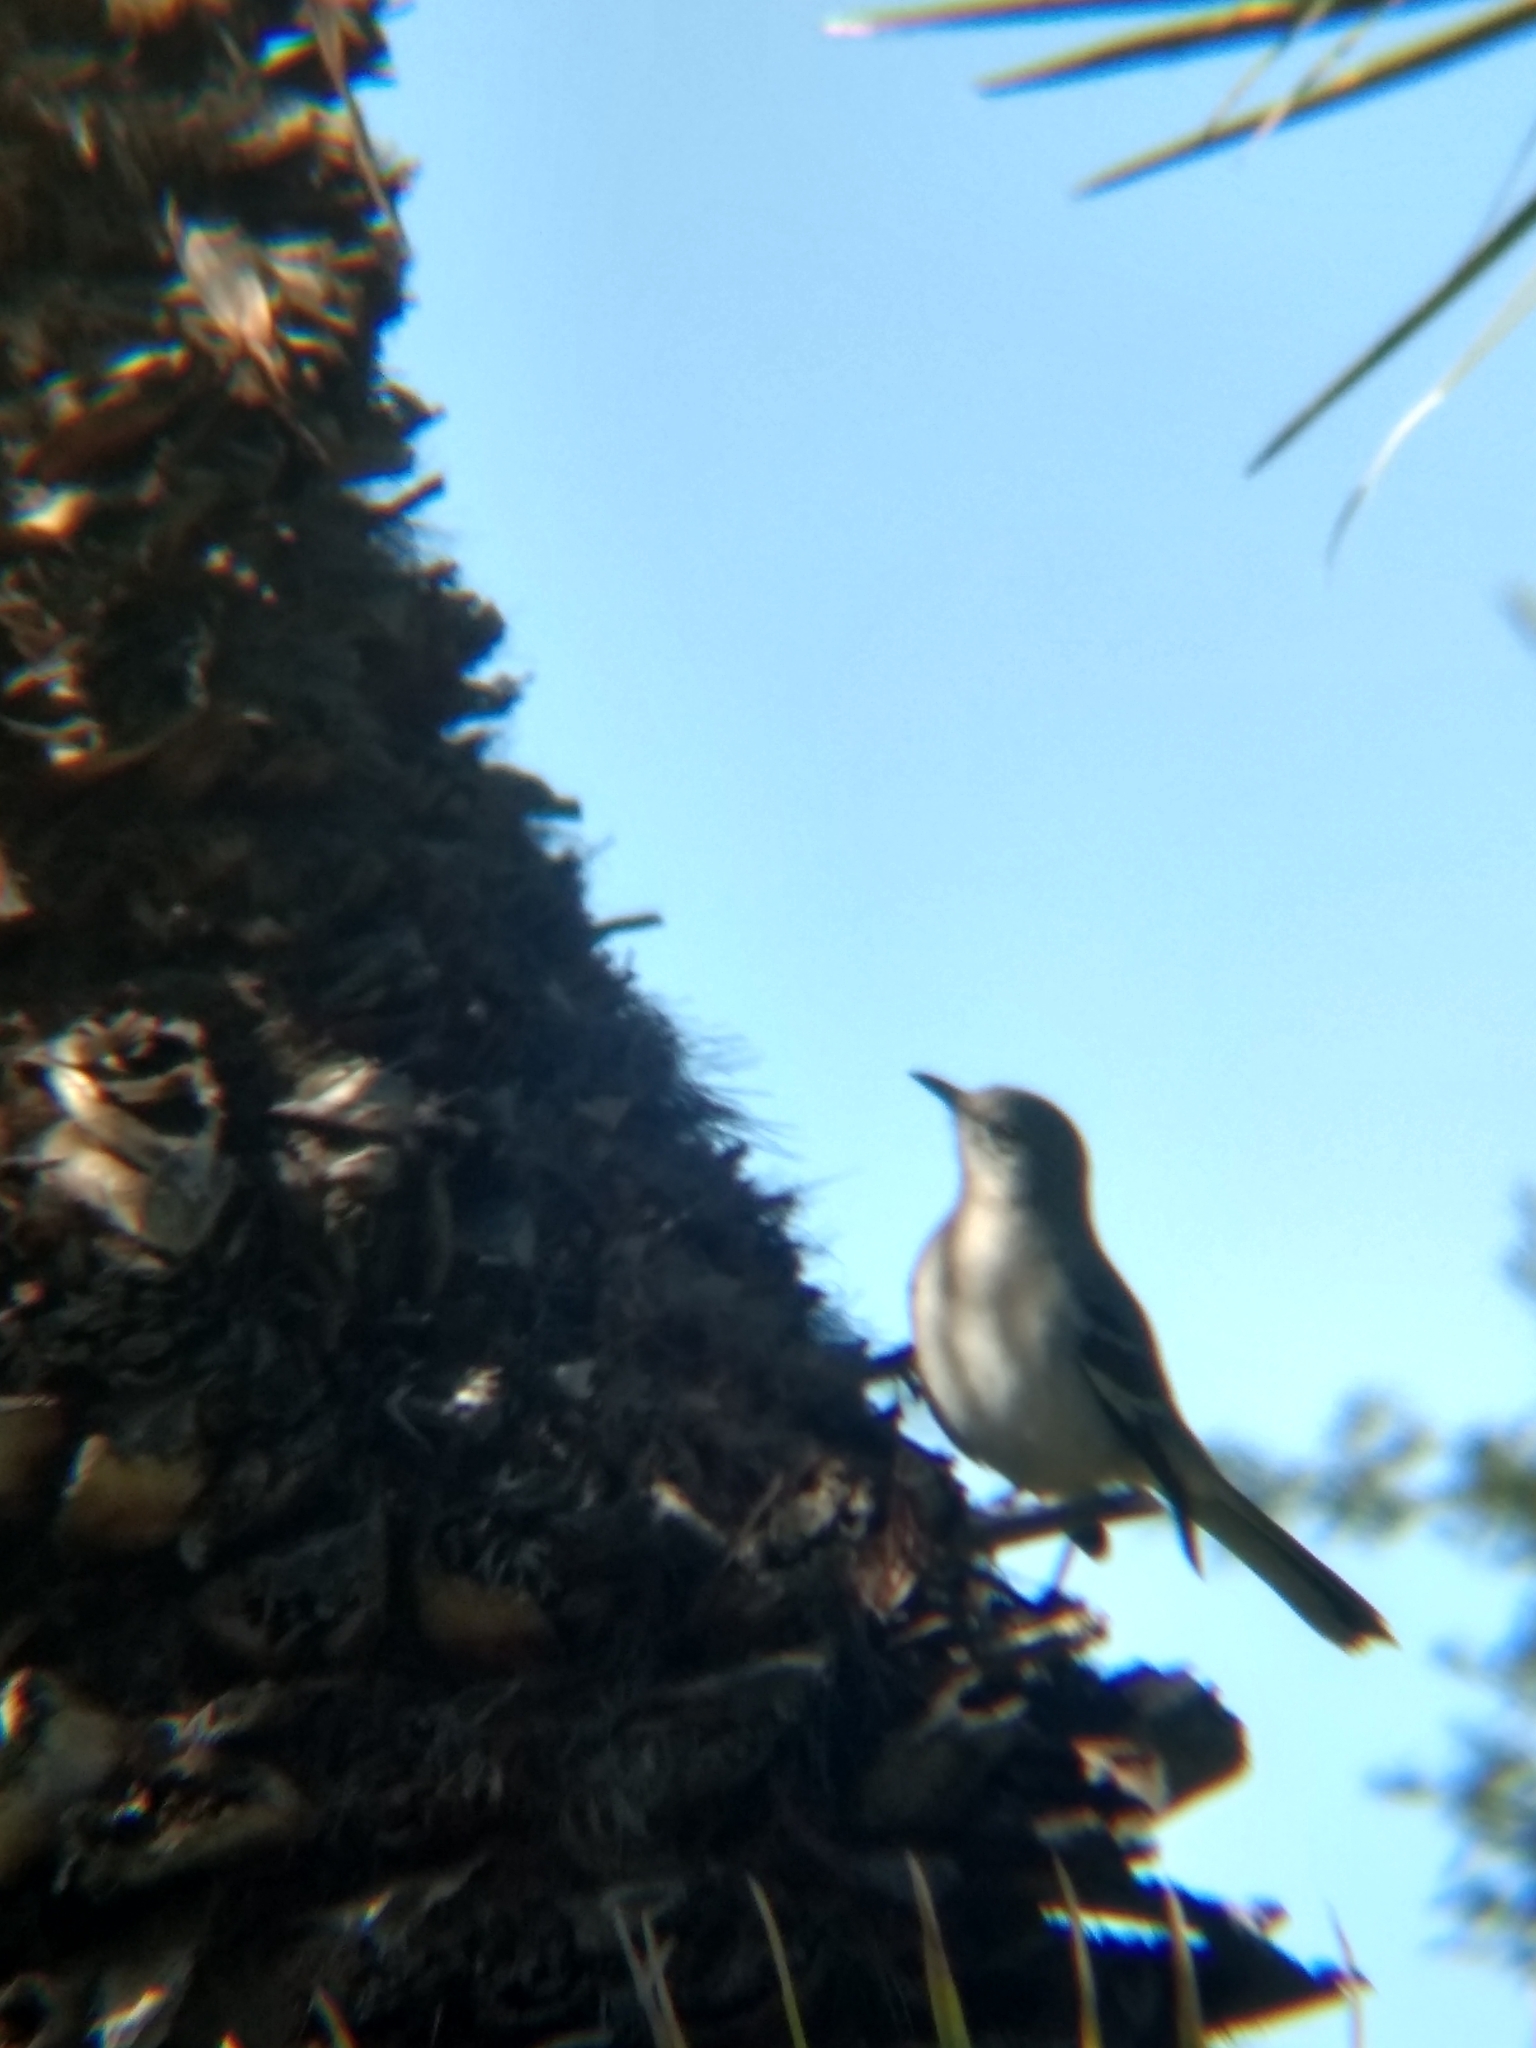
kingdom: Animalia
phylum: Chordata
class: Aves
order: Passeriformes
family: Mimidae
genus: Mimus
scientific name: Mimus polyglottos
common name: Northern mockingbird
